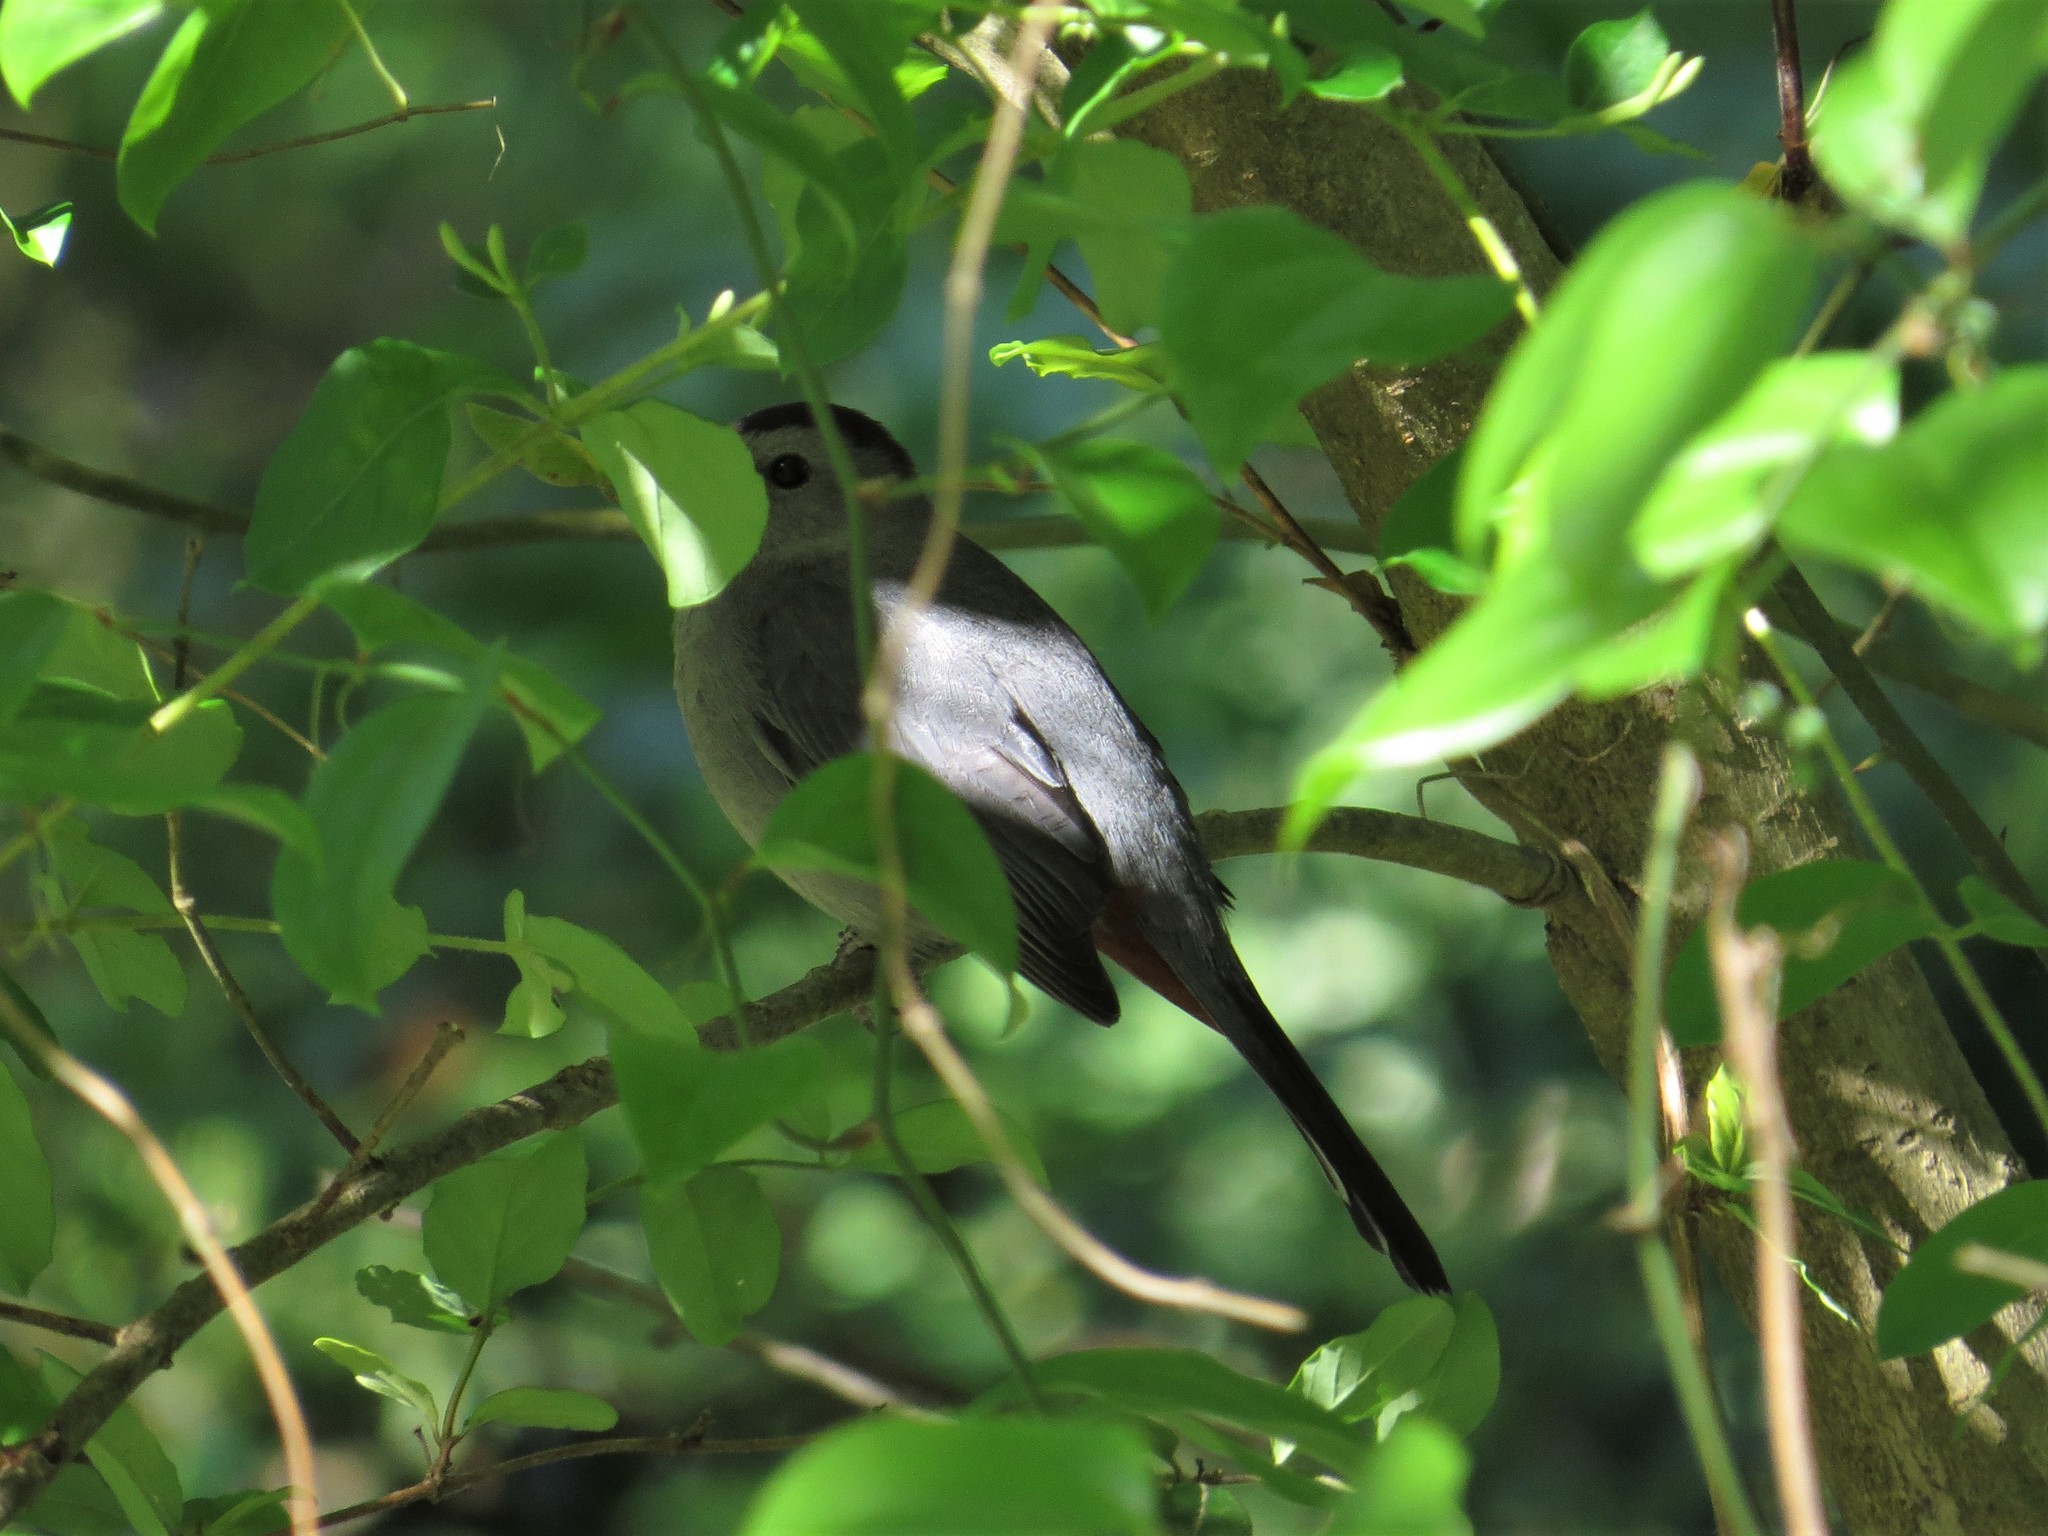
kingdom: Animalia
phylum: Chordata
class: Aves
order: Passeriformes
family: Mimidae
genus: Dumetella
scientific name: Dumetella carolinensis
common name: Gray catbird
